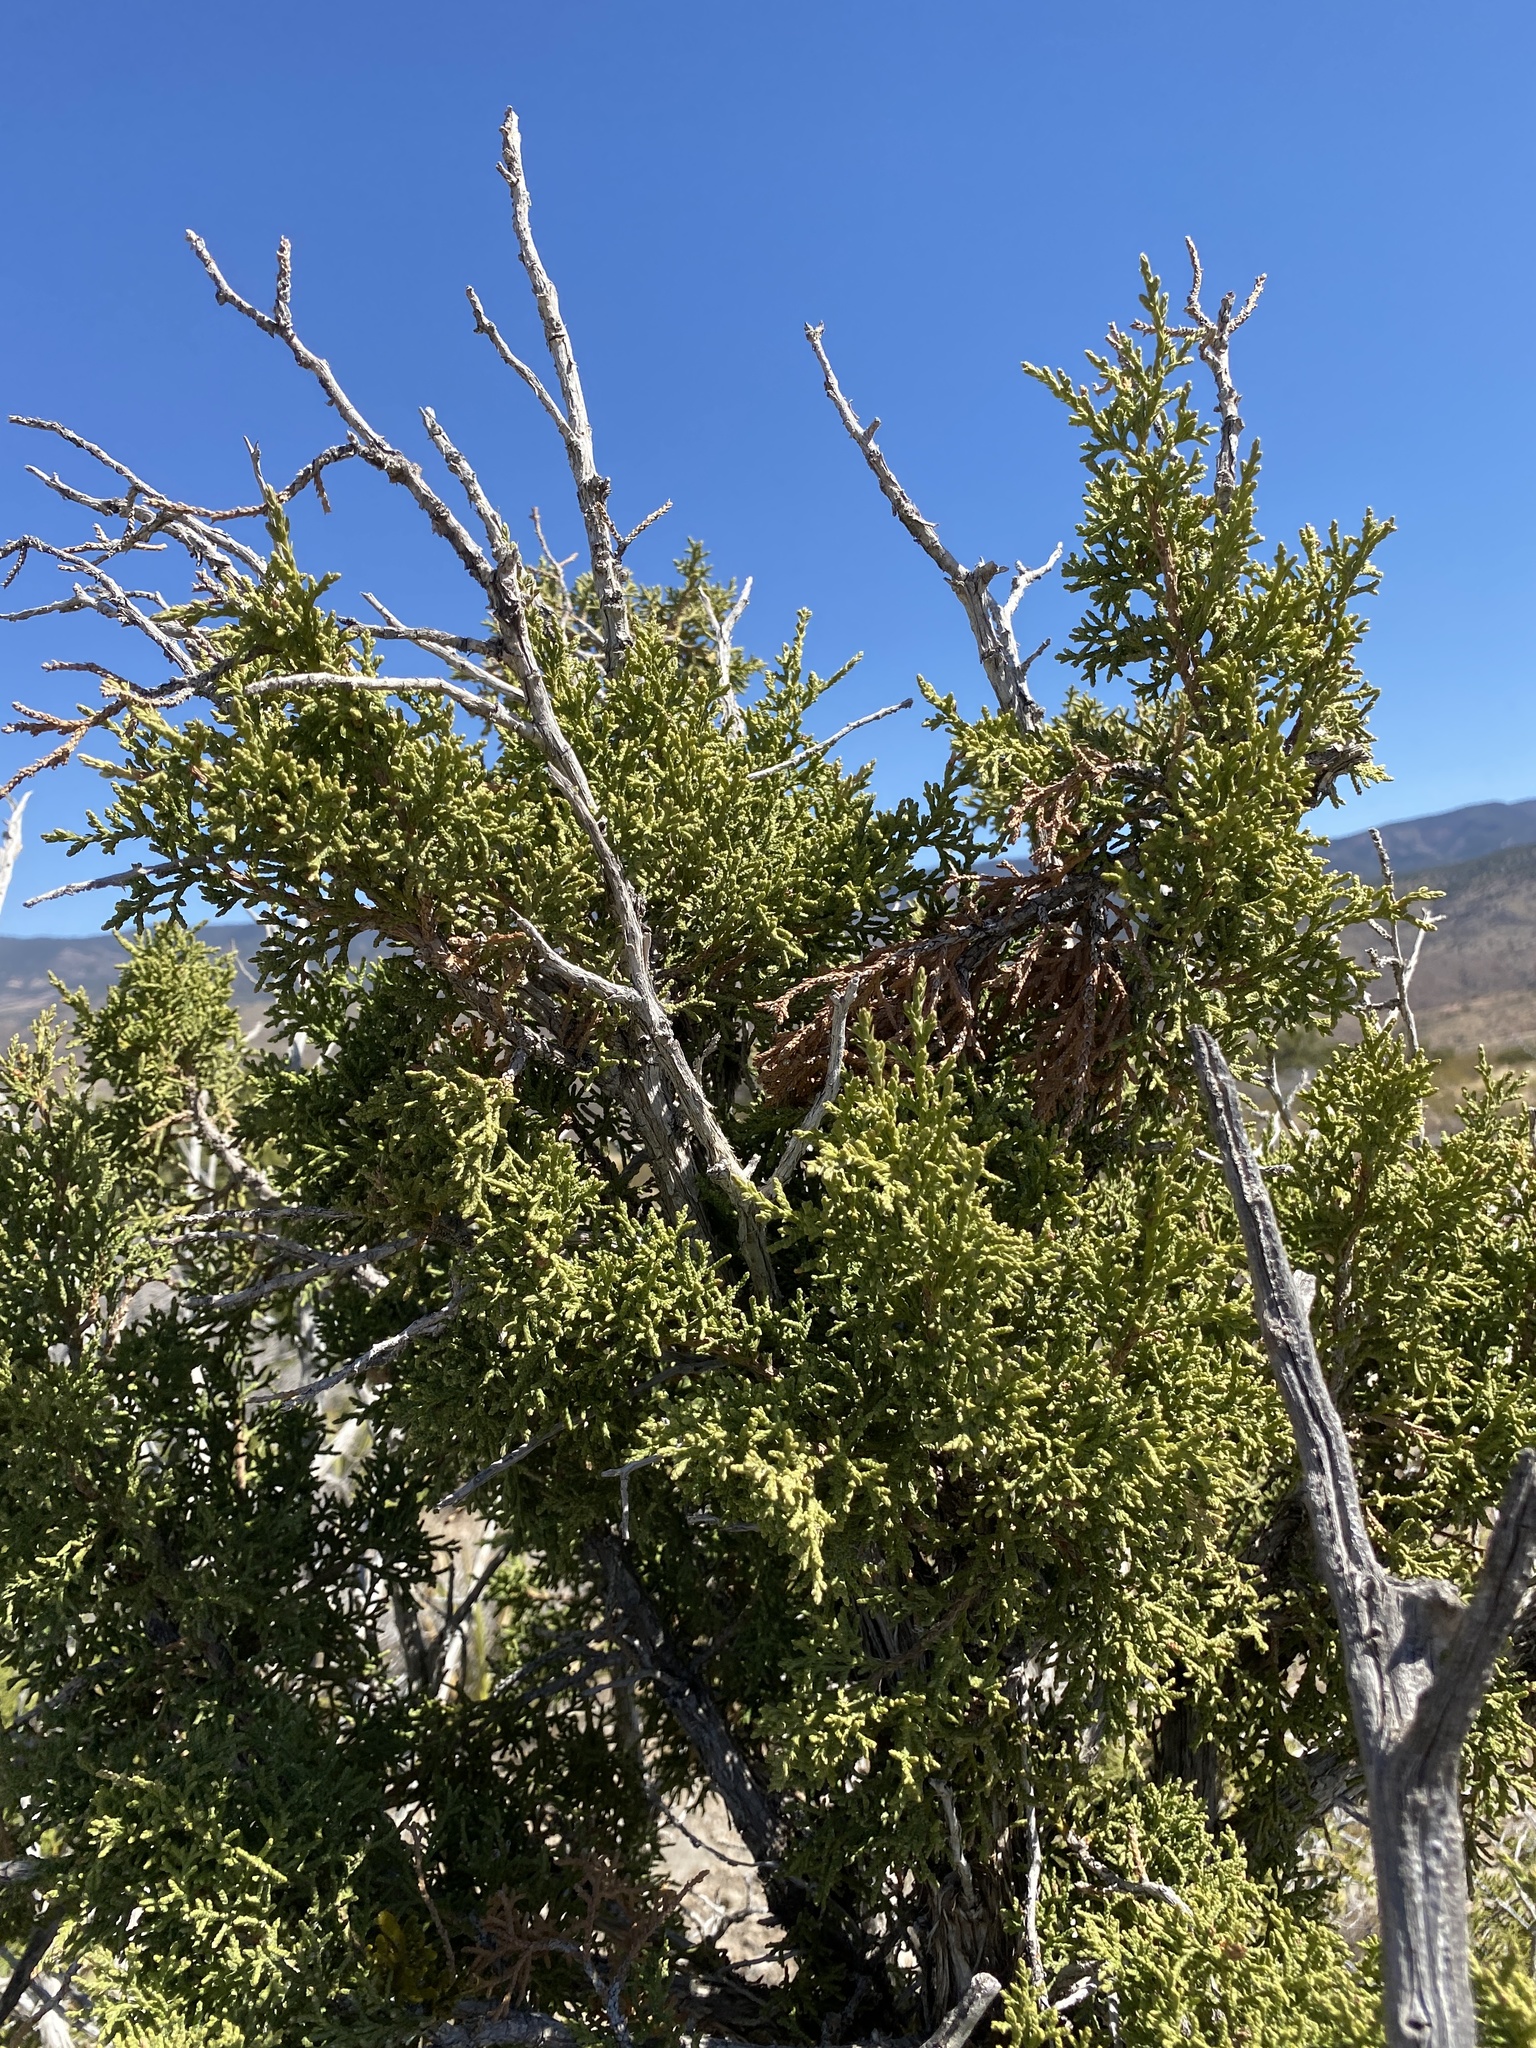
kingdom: Plantae
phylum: Tracheophyta
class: Pinopsida
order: Pinales
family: Cupressaceae
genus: Juniperus
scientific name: Juniperus monosperma
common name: One-seed juniper
